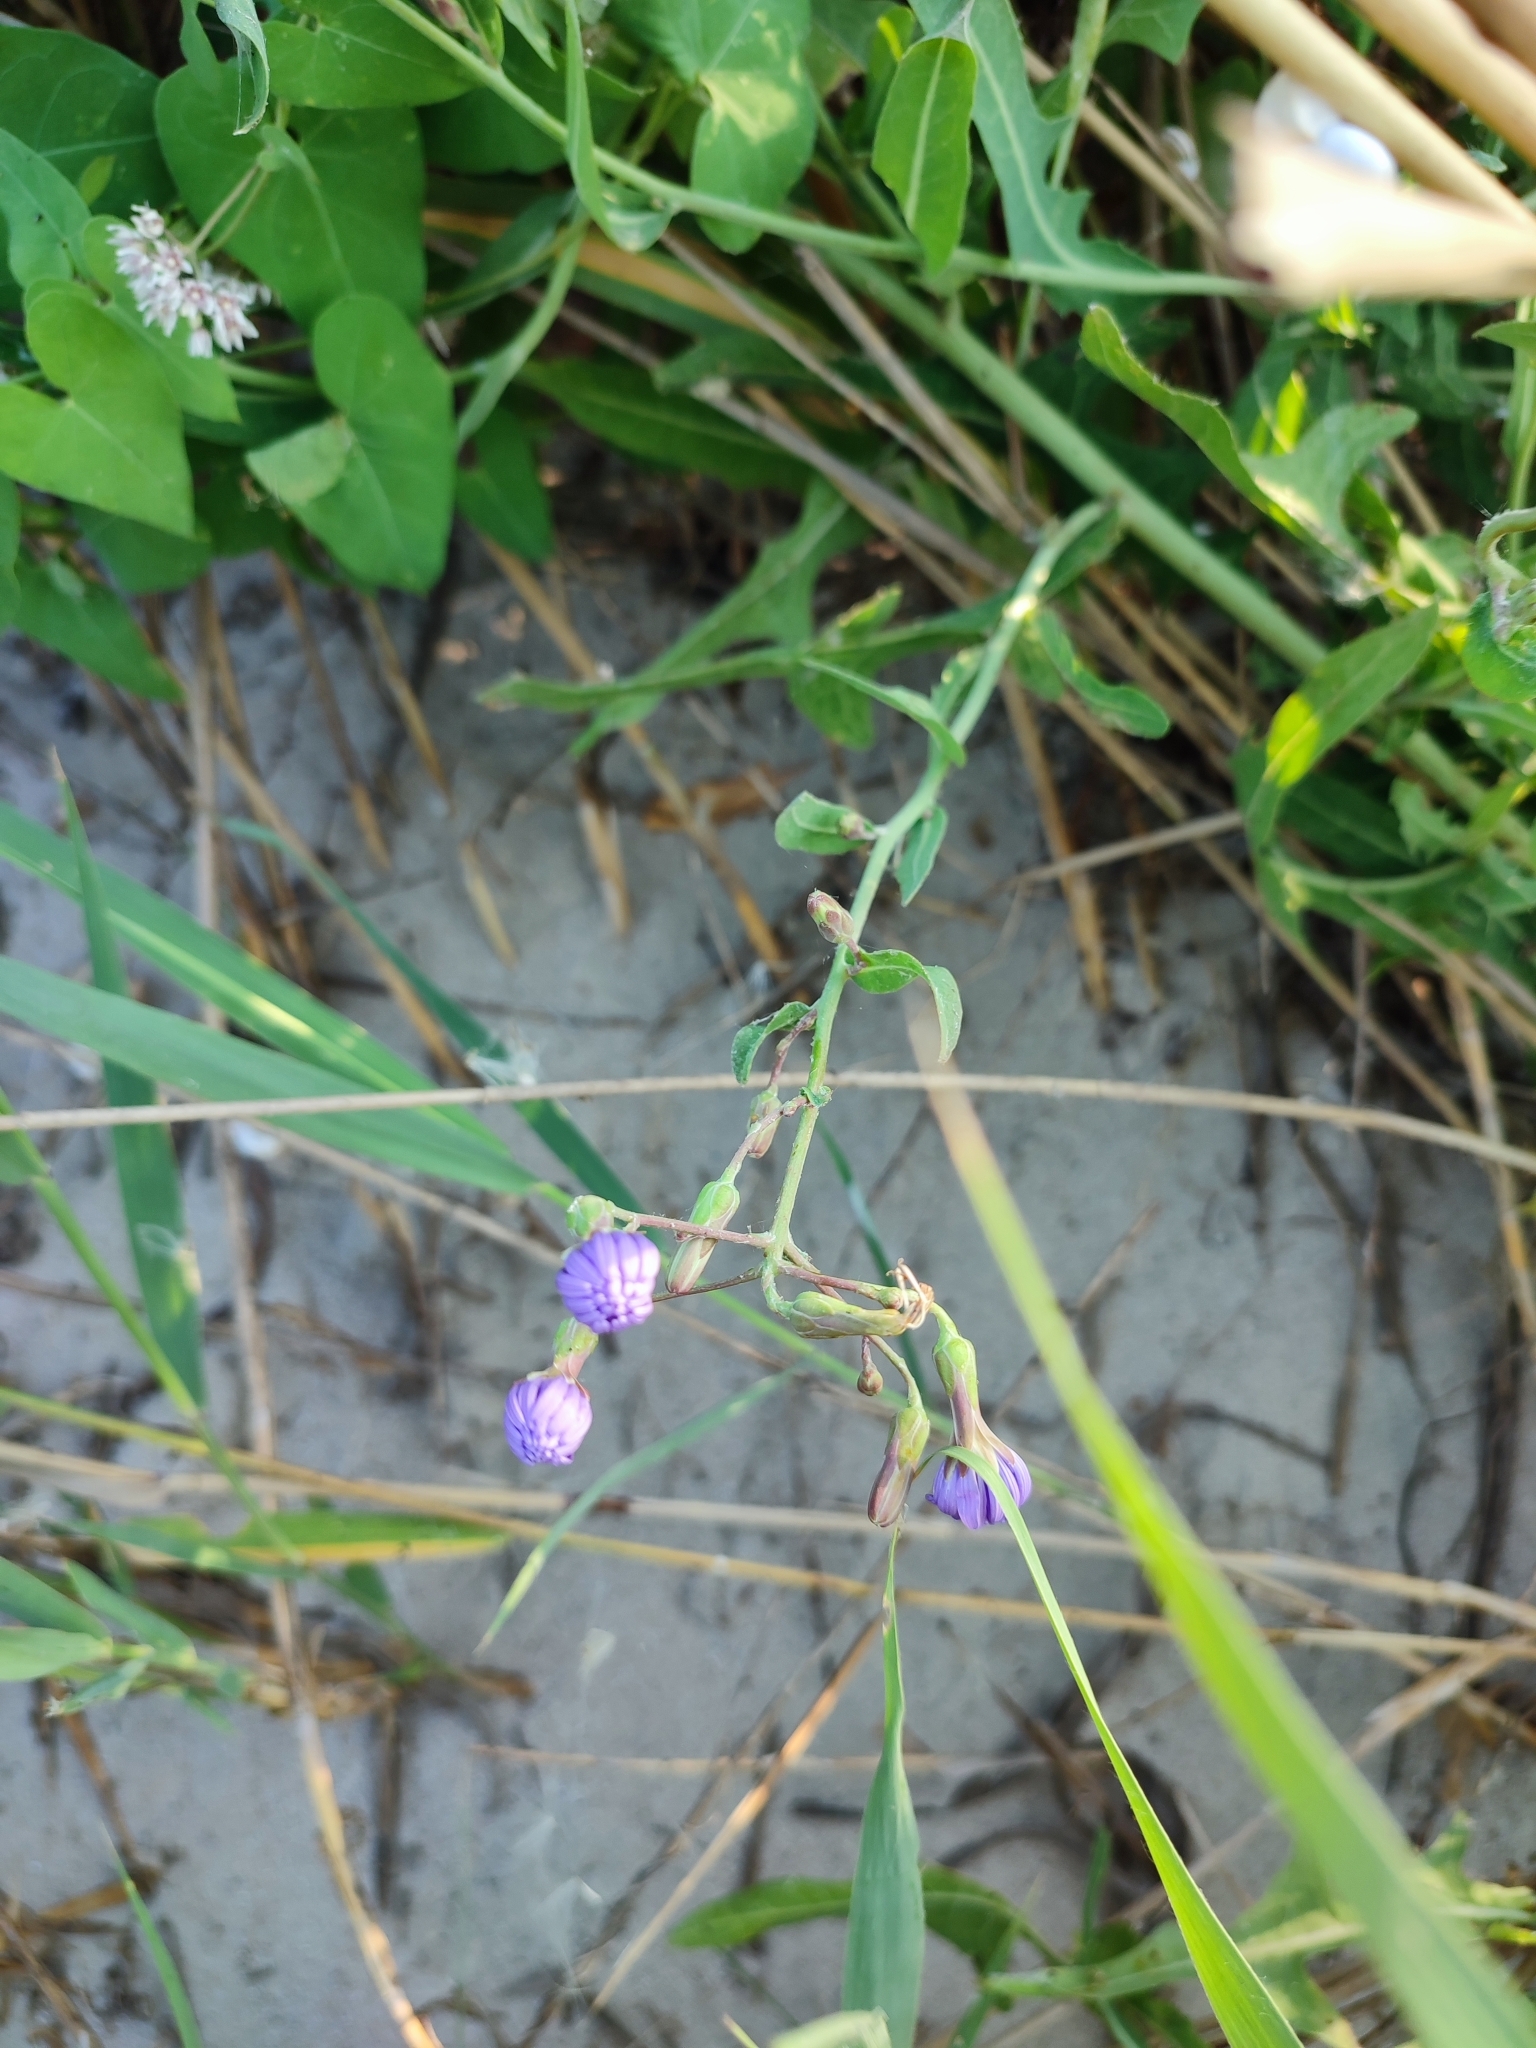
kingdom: Plantae
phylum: Tracheophyta
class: Magnoliopsida
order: Asterales
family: Asteraceae
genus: Lactuca
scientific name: Lactuca tatarica
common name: Blue lettuce
